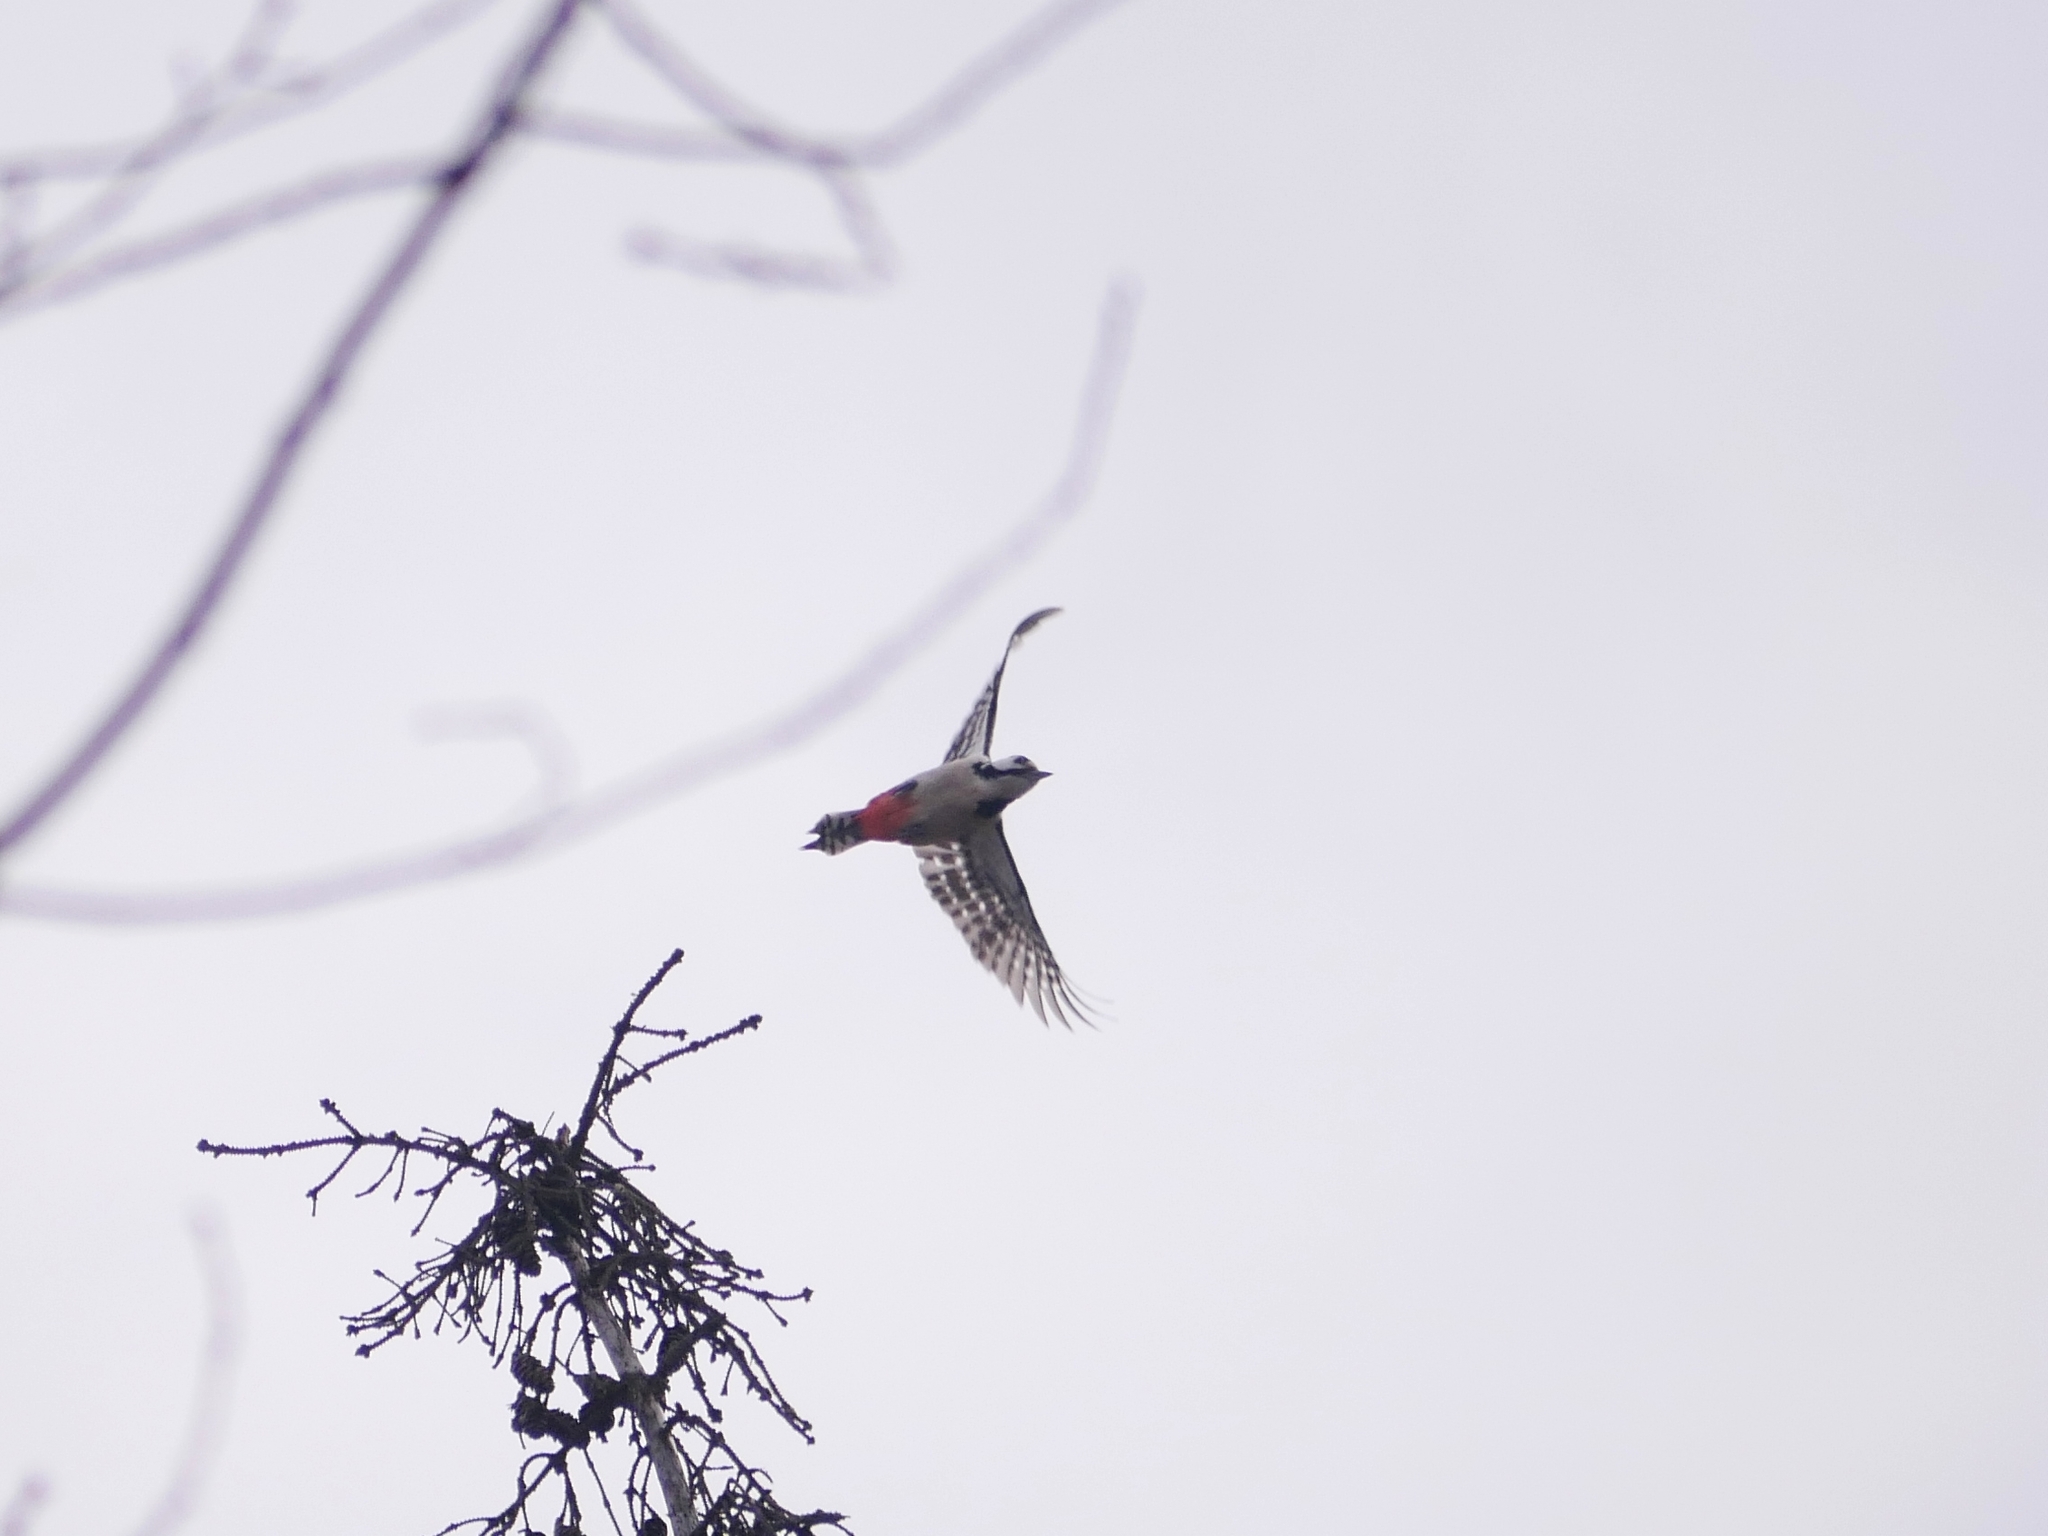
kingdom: Animalia
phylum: Chordata
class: Aves
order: Piciformes
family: Picidae
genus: Dendrocopos
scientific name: Dendrocopos major
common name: Great spotted woodpecker
